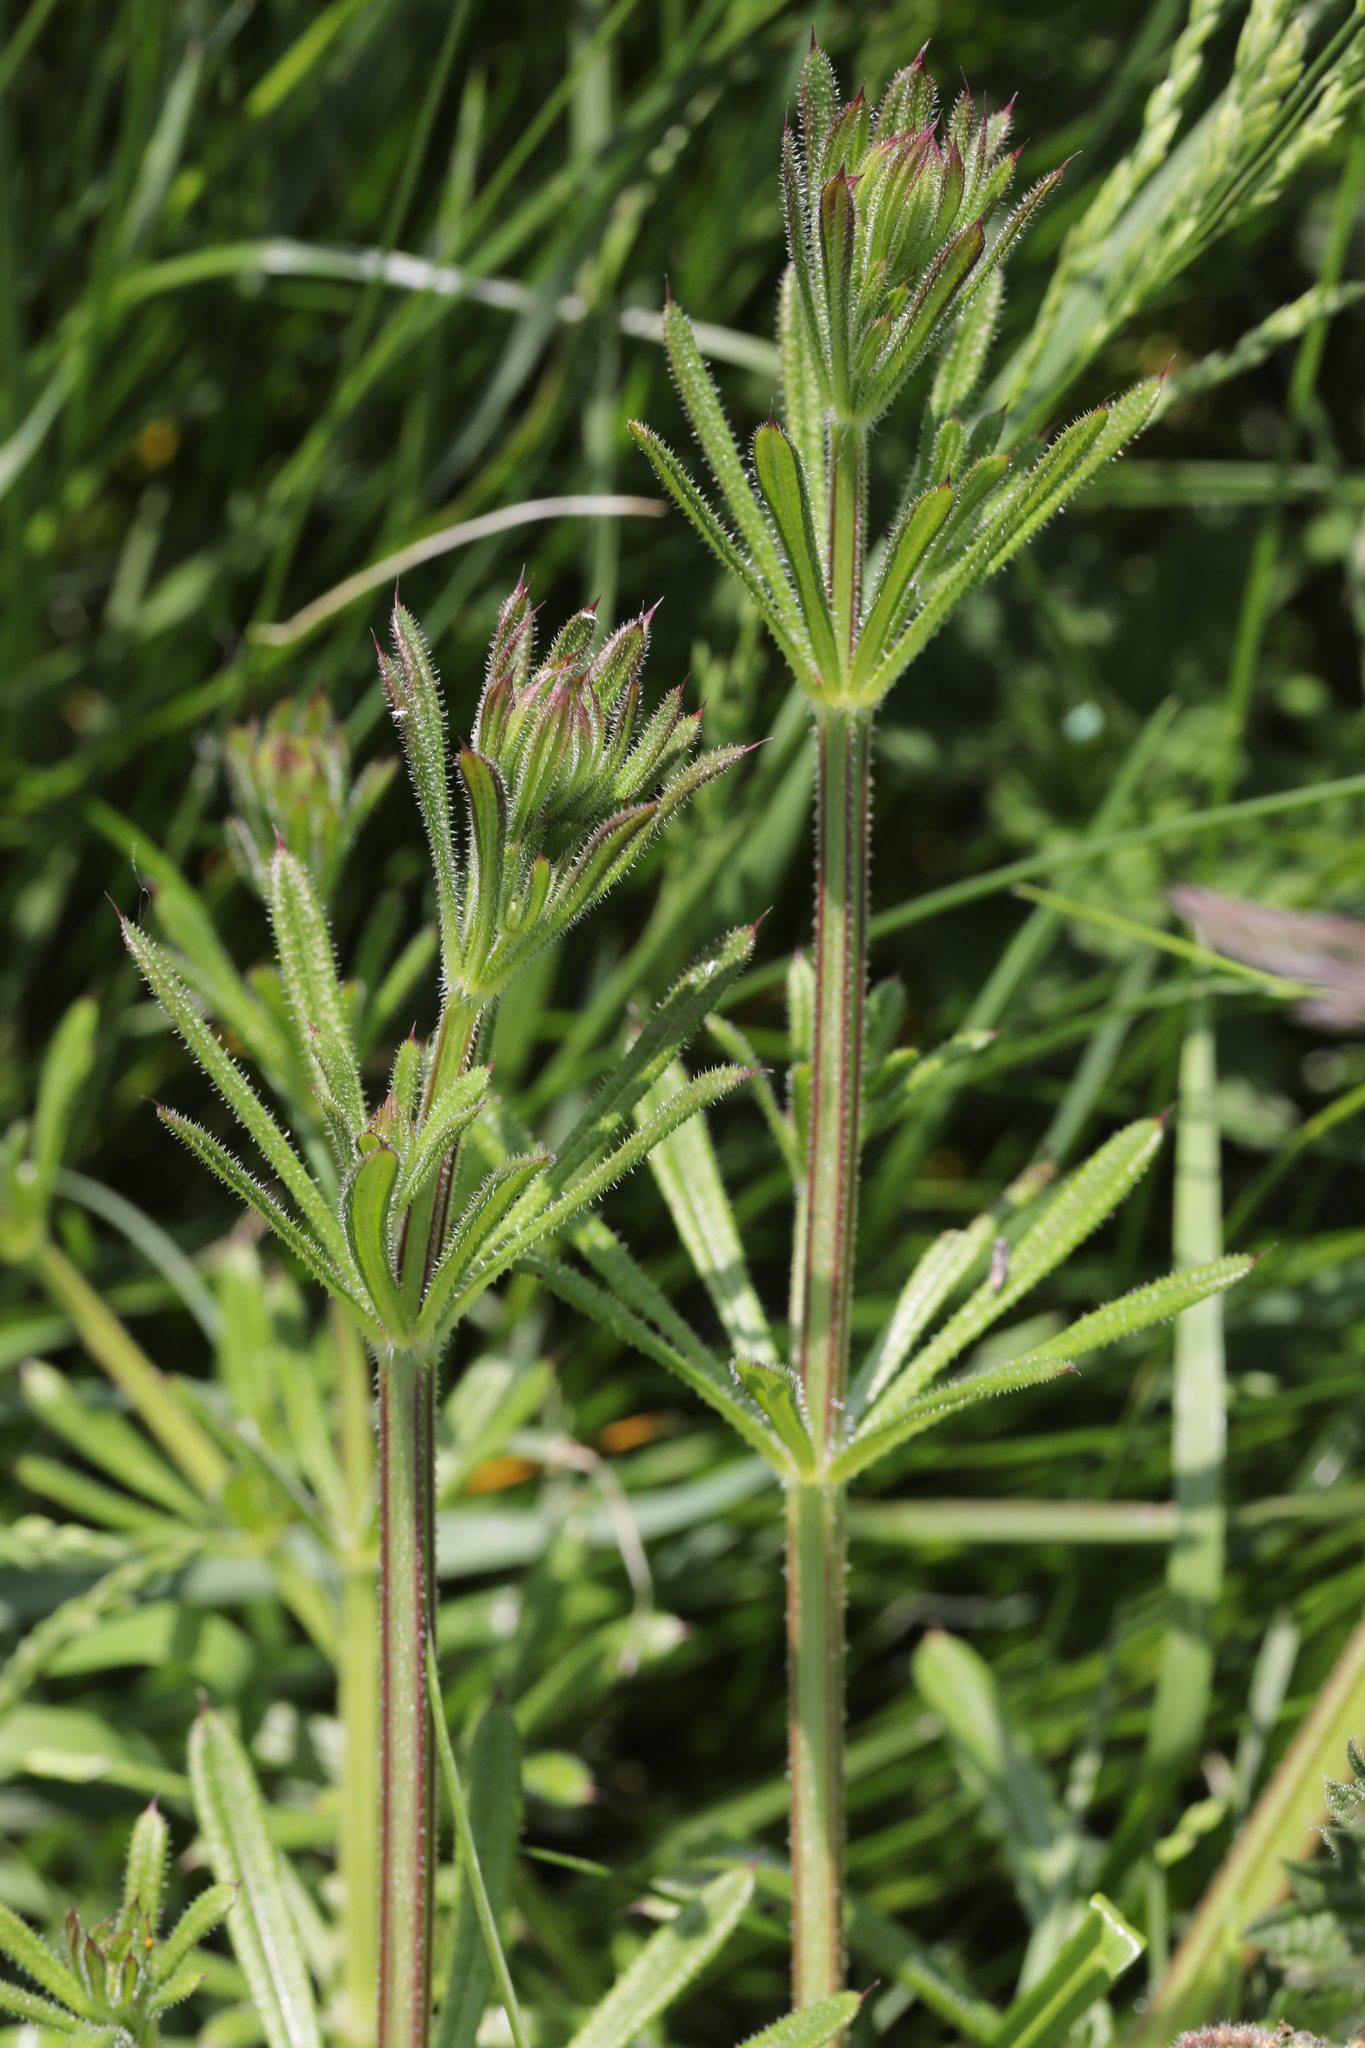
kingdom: Plantae
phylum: Tracheophyta
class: Magnoliopsida
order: Gentianales
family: Rubiaceae
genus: Galium
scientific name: Galium aparine
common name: Cleavers
